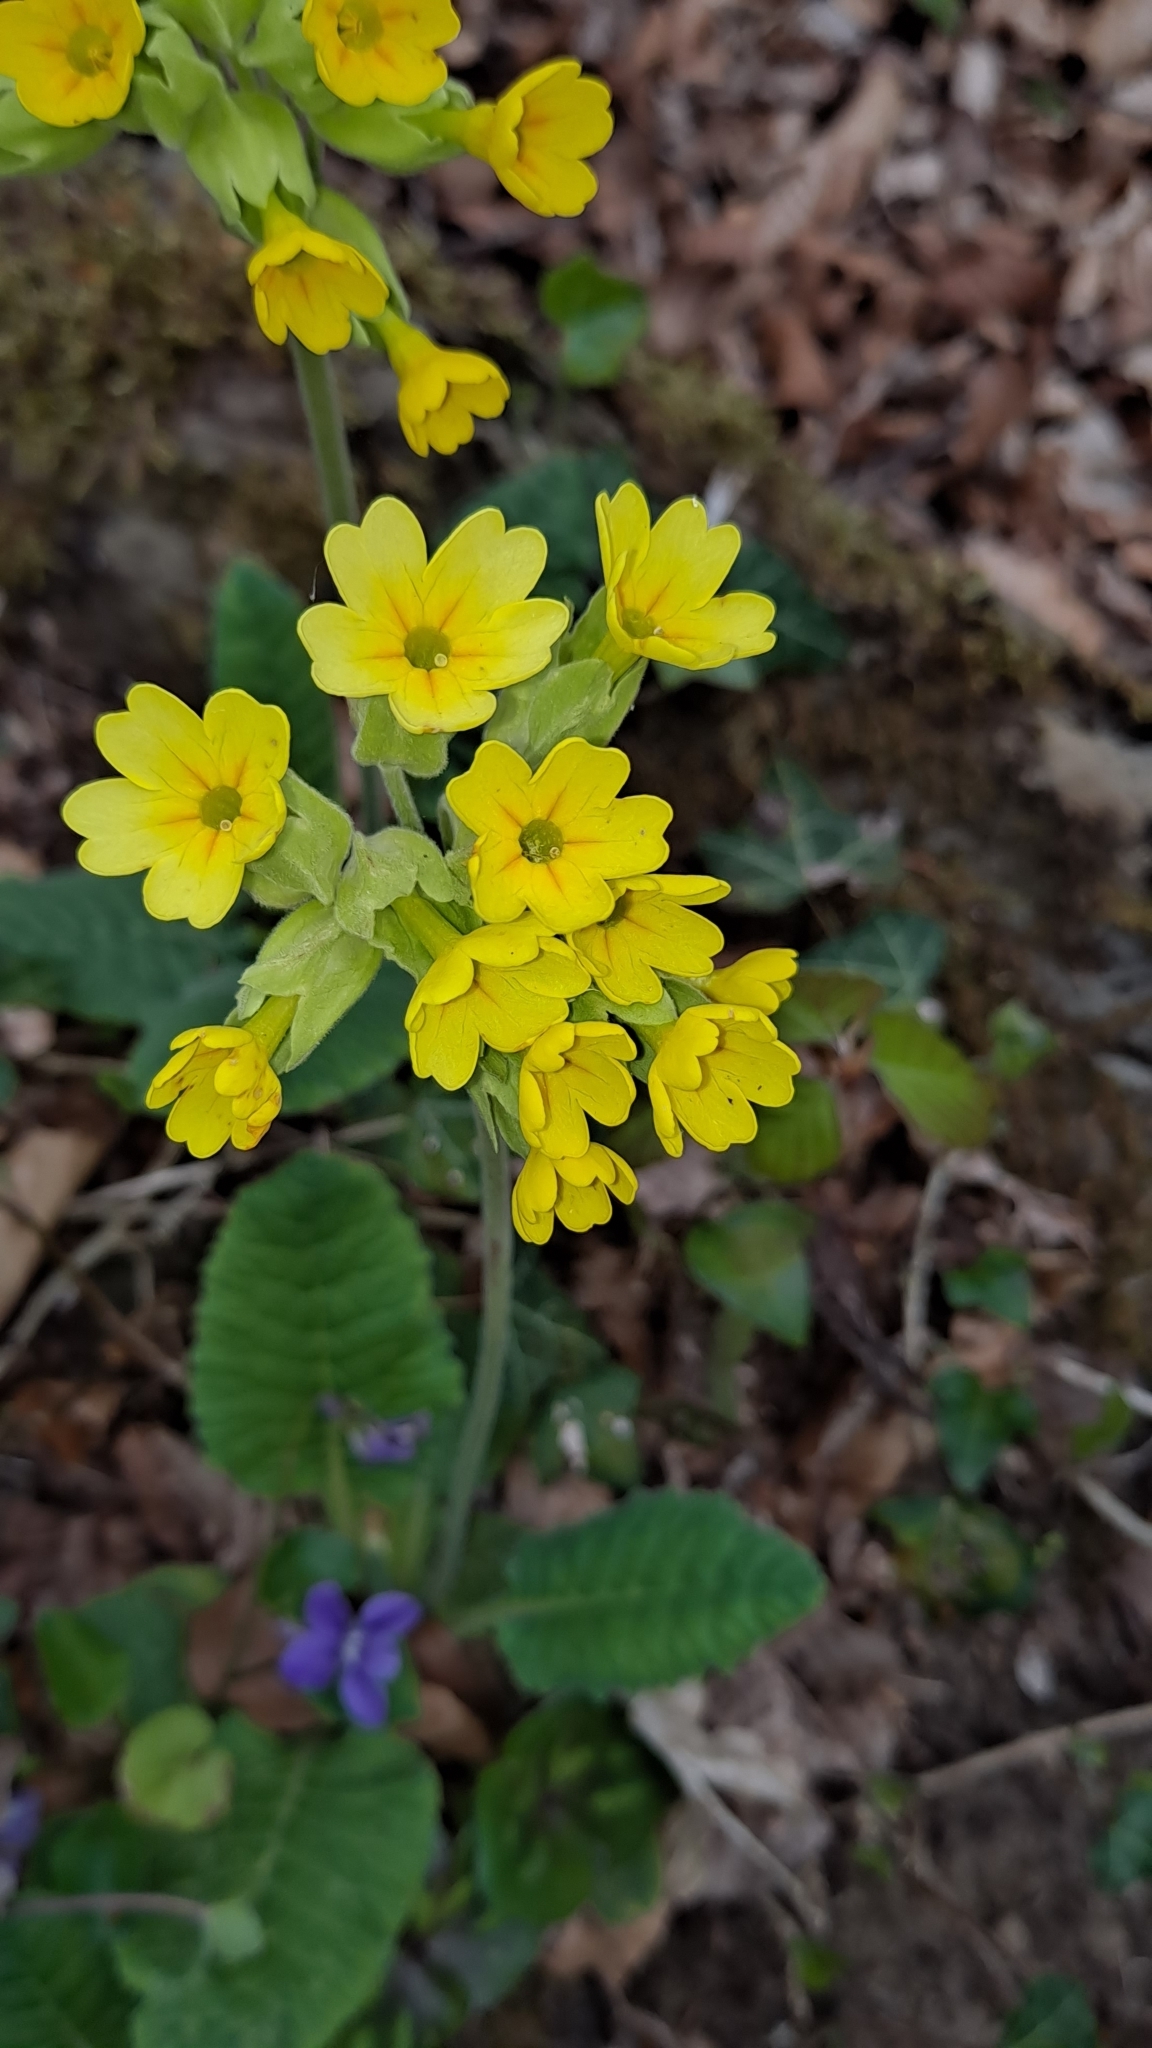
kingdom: Plantae
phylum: Tracheophyta
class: Magnoliopsida
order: Ericales
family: Primulaceae
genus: Primula
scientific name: Primula veris
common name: Cowslip
